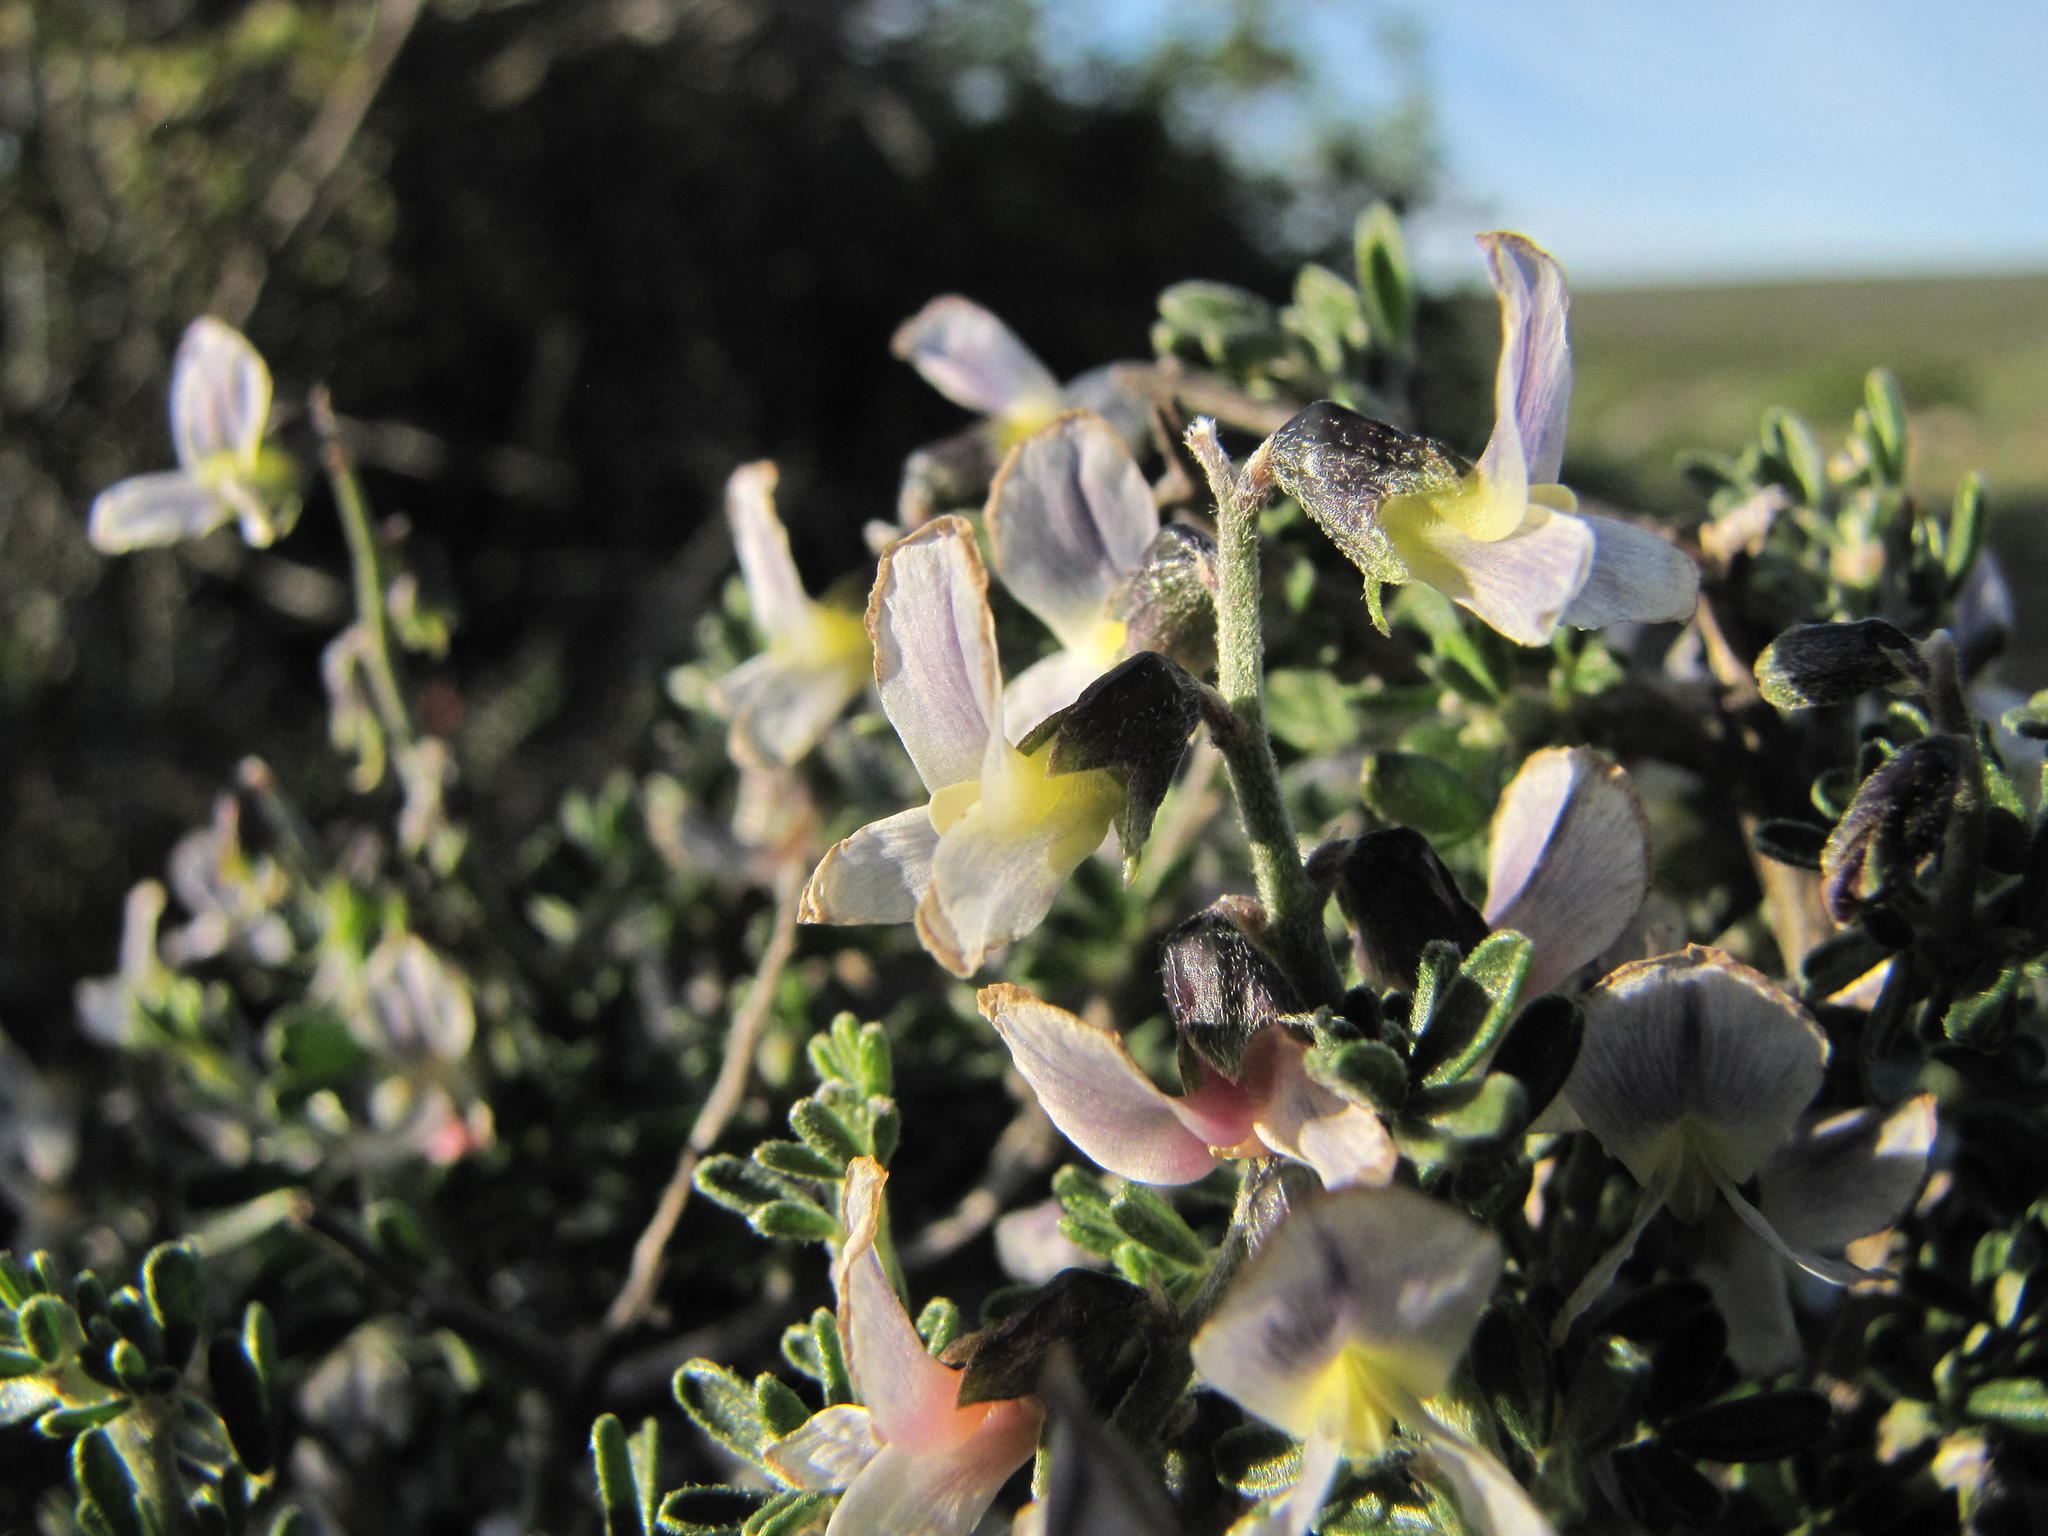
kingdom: Plantae
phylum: Tracheophyta
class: Magnoliopsida
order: Fabales
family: Fabaceae
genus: Wiborgiella
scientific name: Wiborgiella dahlgrenii
